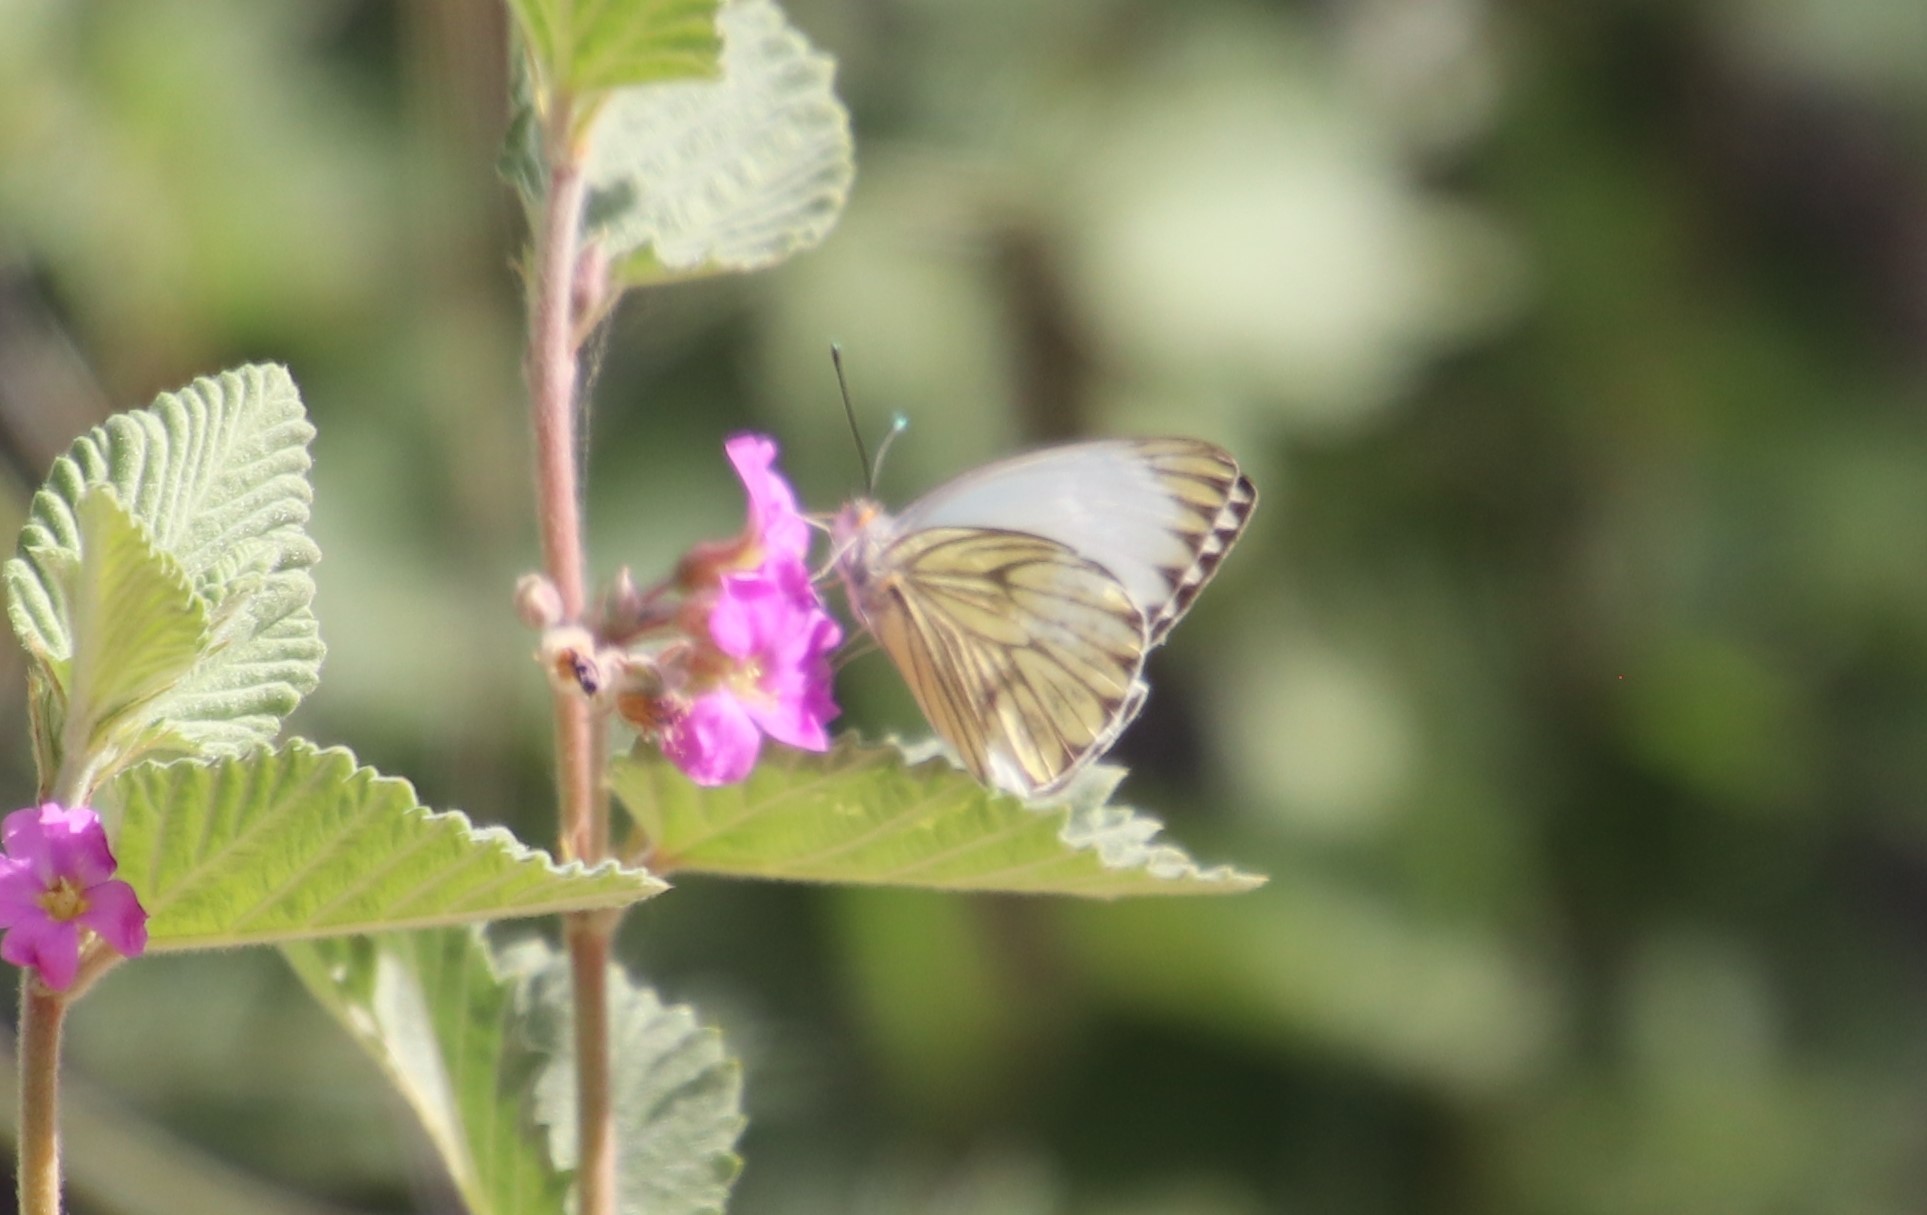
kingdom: Animalia
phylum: Arthropoda
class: Insecta
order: Lepidoptera
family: Pieridae
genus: Ascia
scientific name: Ascia monuste
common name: Great southern white
